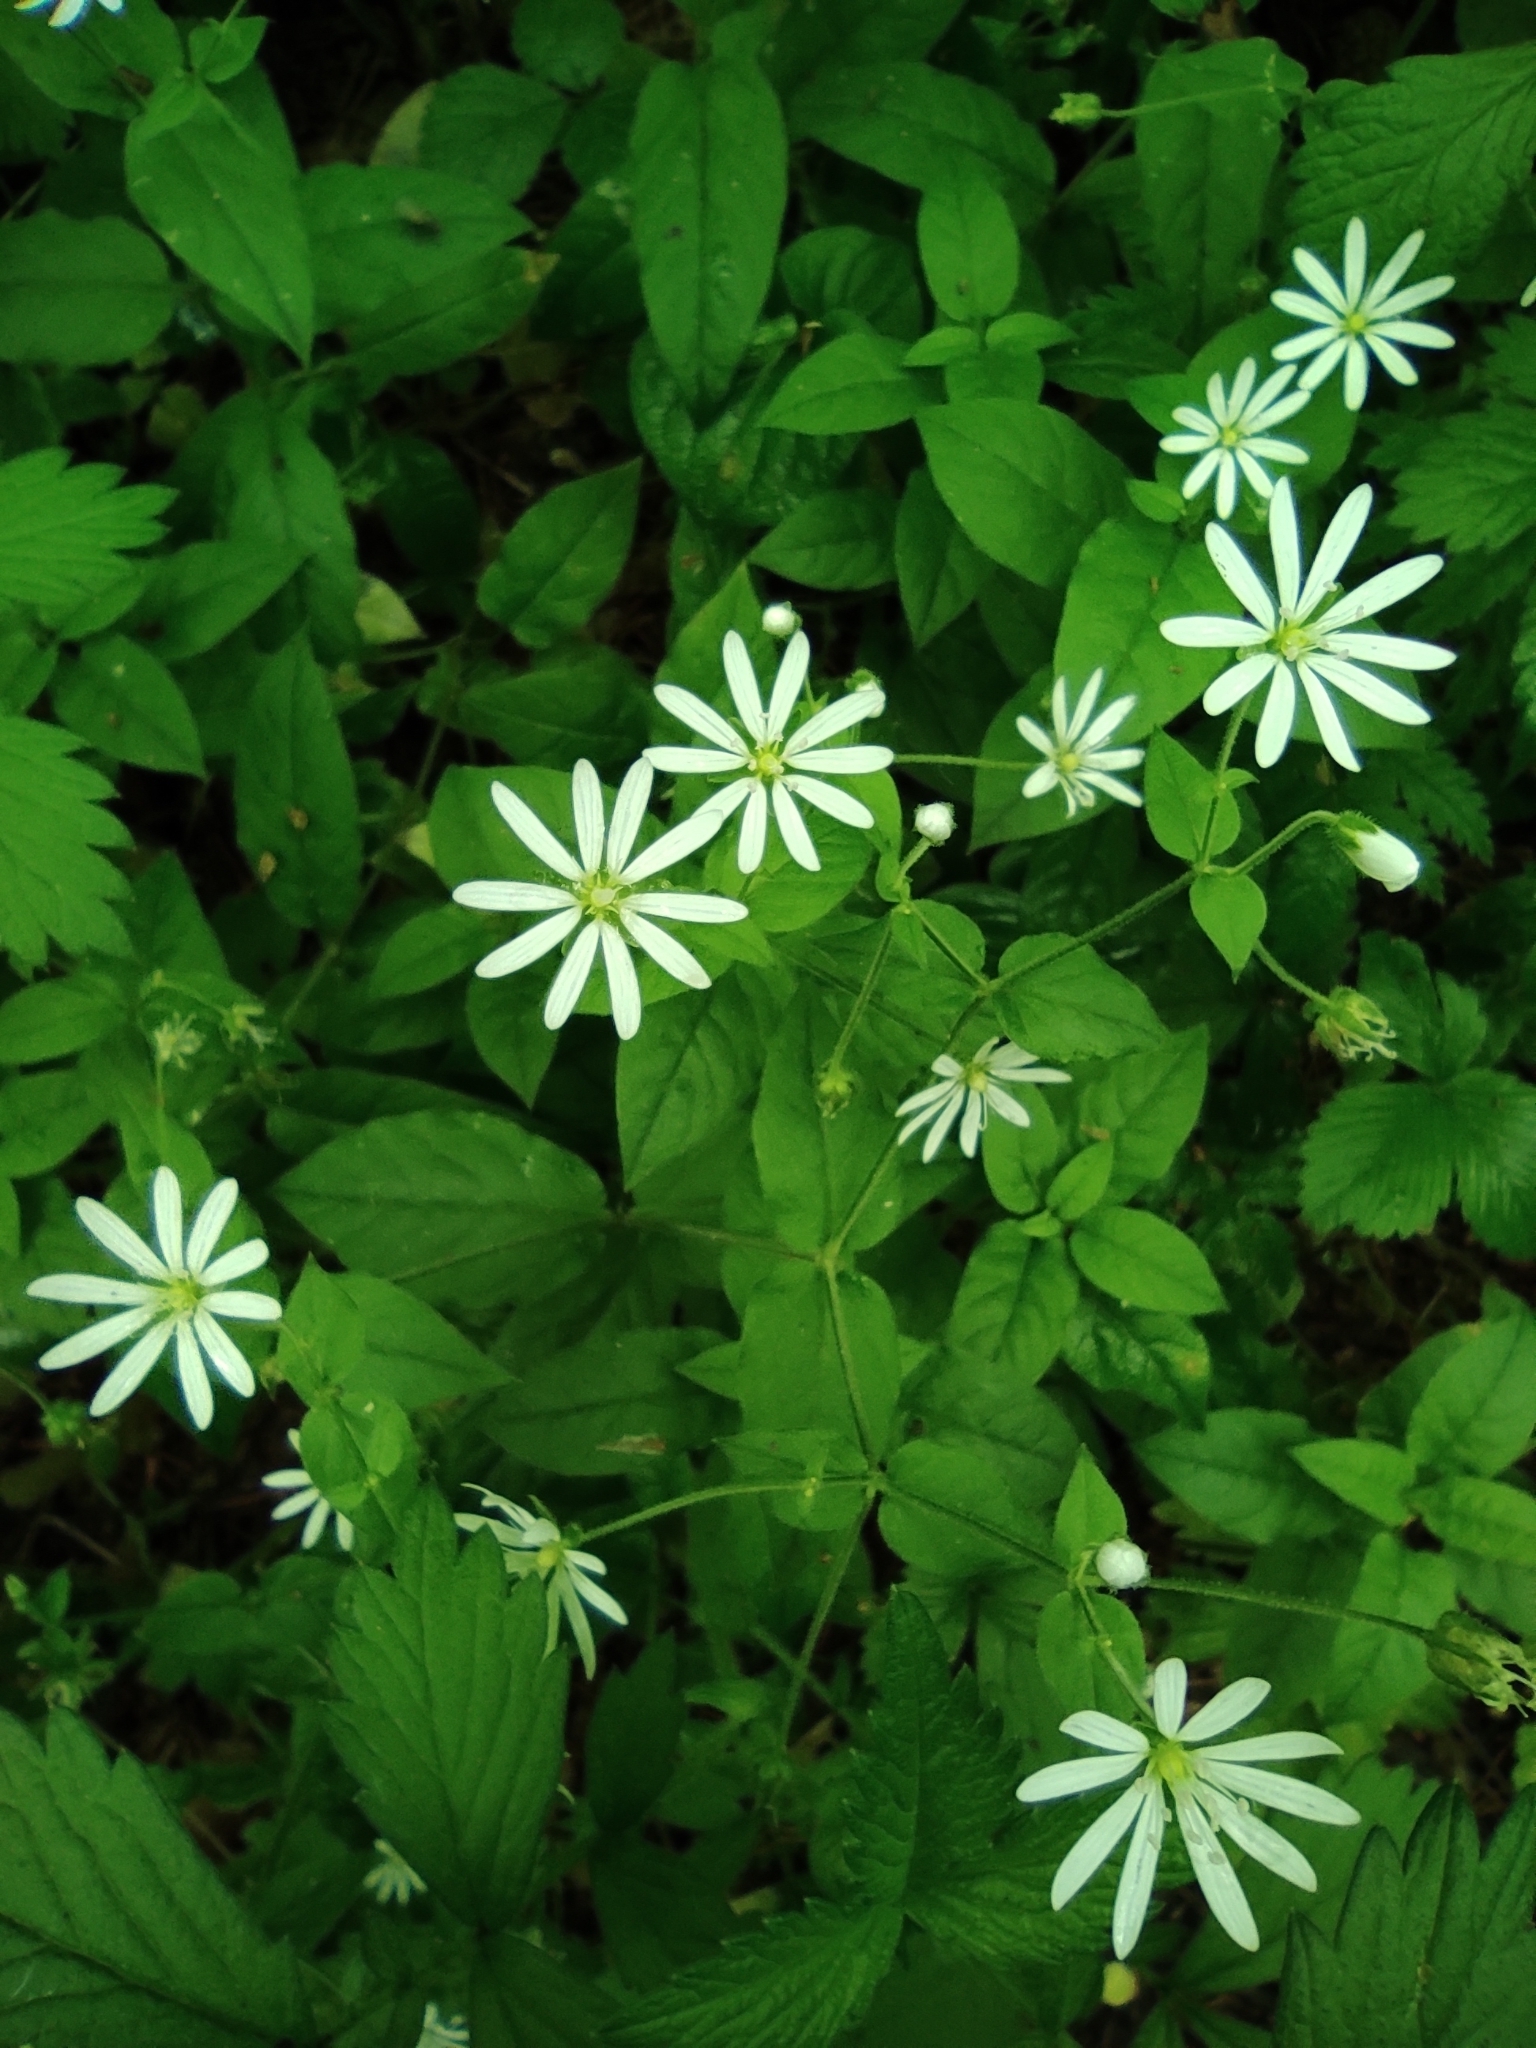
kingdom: Plantae
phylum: Tracheophyta
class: Magnoliopsida
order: Caryophyllales
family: Caryophyllaceae
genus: Stellaria
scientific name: Stellaria bungeana
